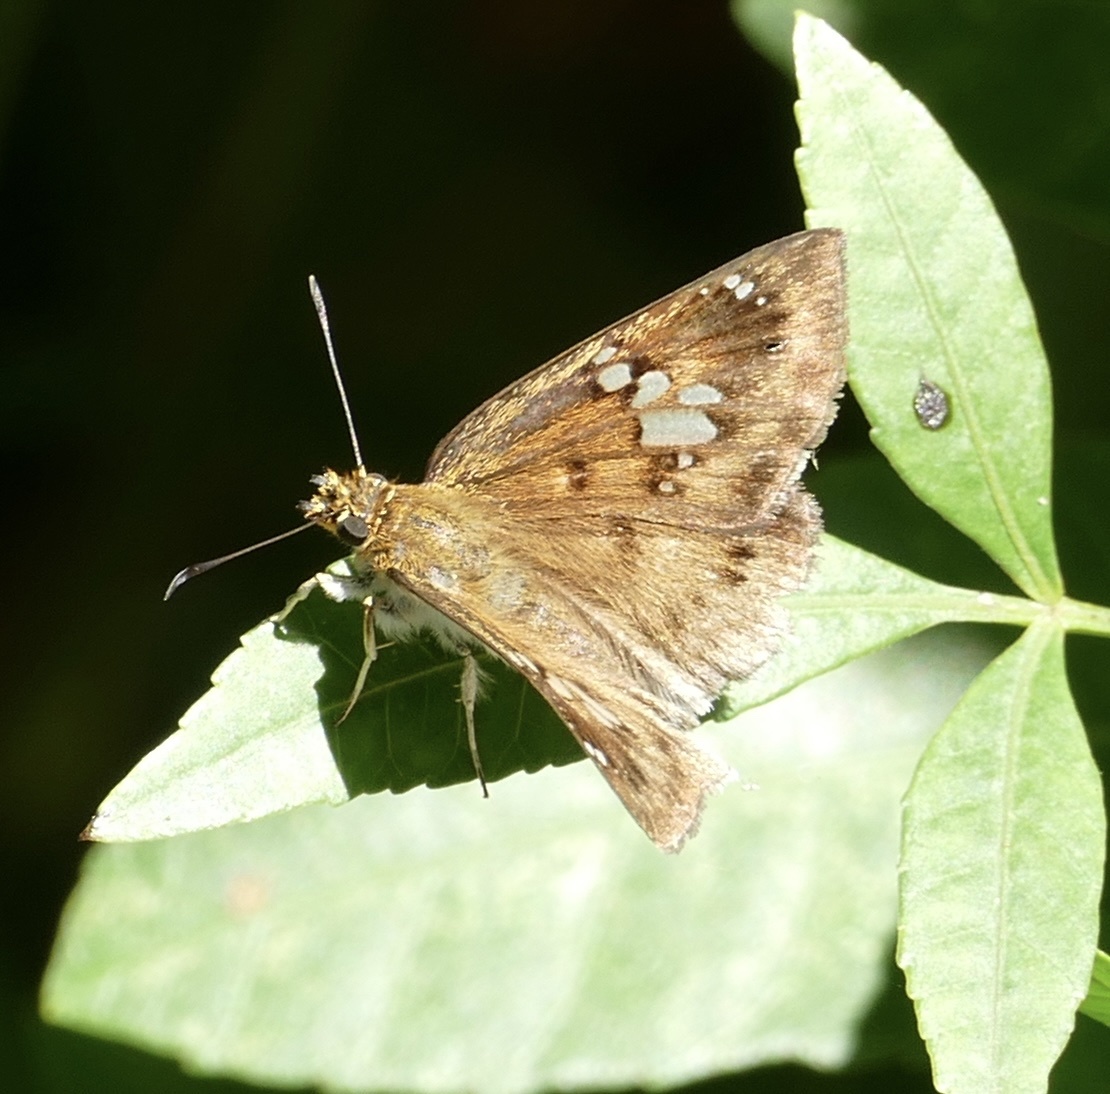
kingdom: Animalia
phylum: Arthropoda
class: Insecta
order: Lepidoptera
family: Hesperiidae
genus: Tagiades
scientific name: Tagiades flesus
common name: Clouded flat
